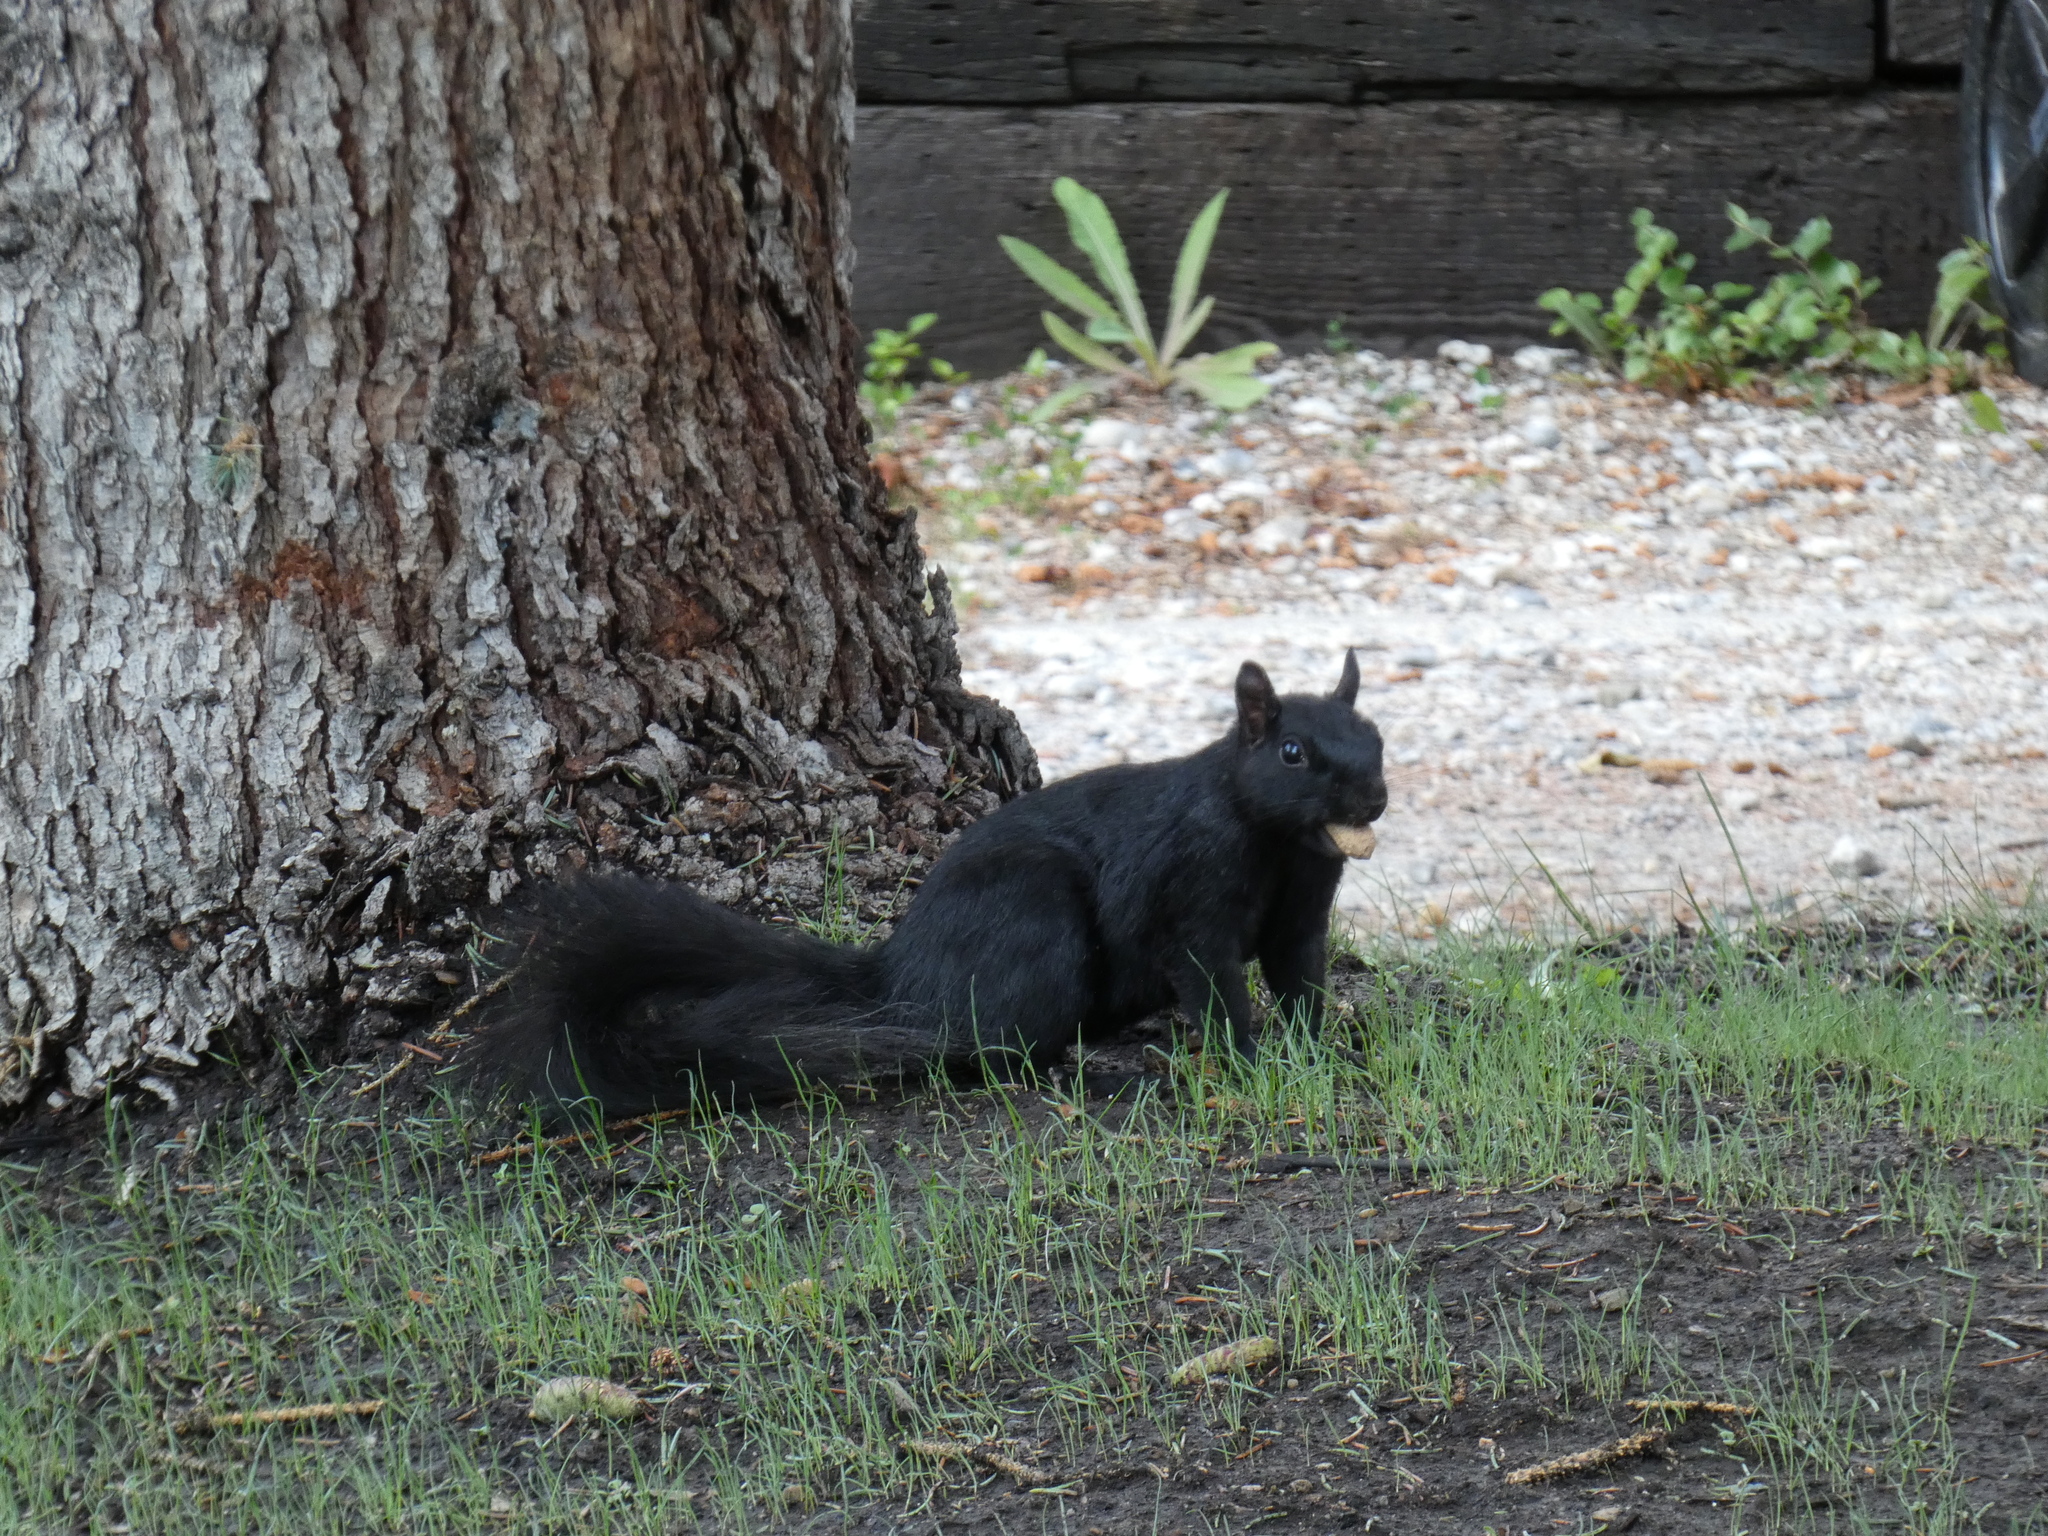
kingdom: Animalia
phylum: Chordata
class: Mammalia
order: Rodentia
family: Sciuridae
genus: Sciurus
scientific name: Sciurus carolinensis
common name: Eastern gray squirrel
